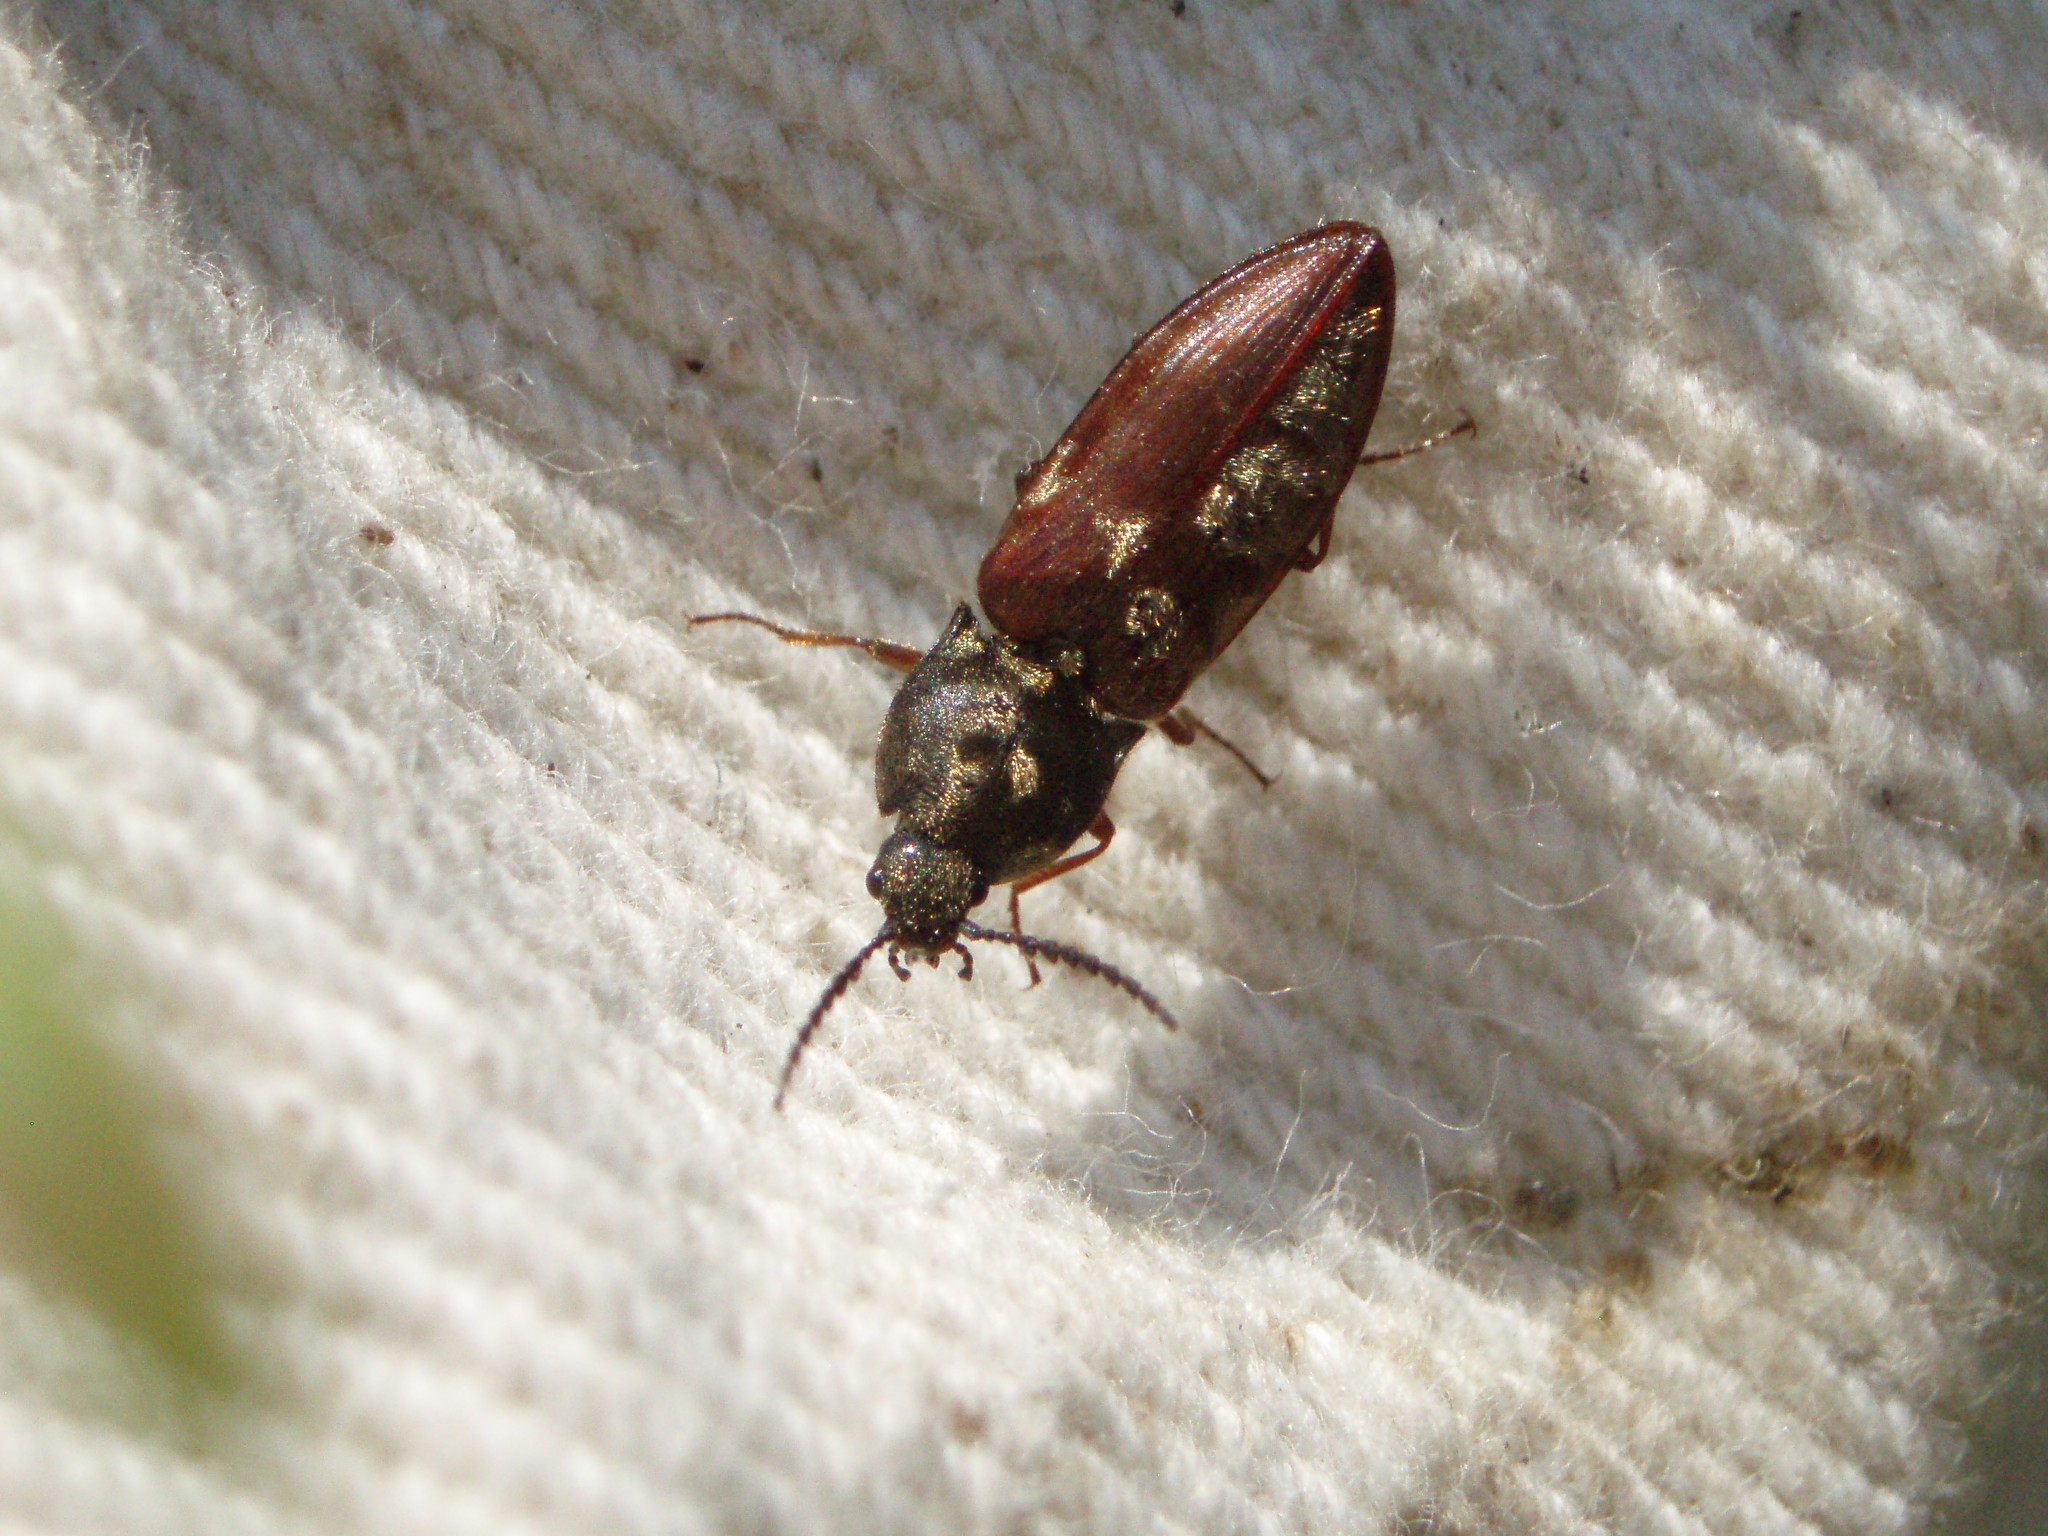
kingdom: Animalia
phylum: Arthropoda
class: Insecta
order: Coleoptera
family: Elateridae
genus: Prosternon
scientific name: Prosternon bombycinum
